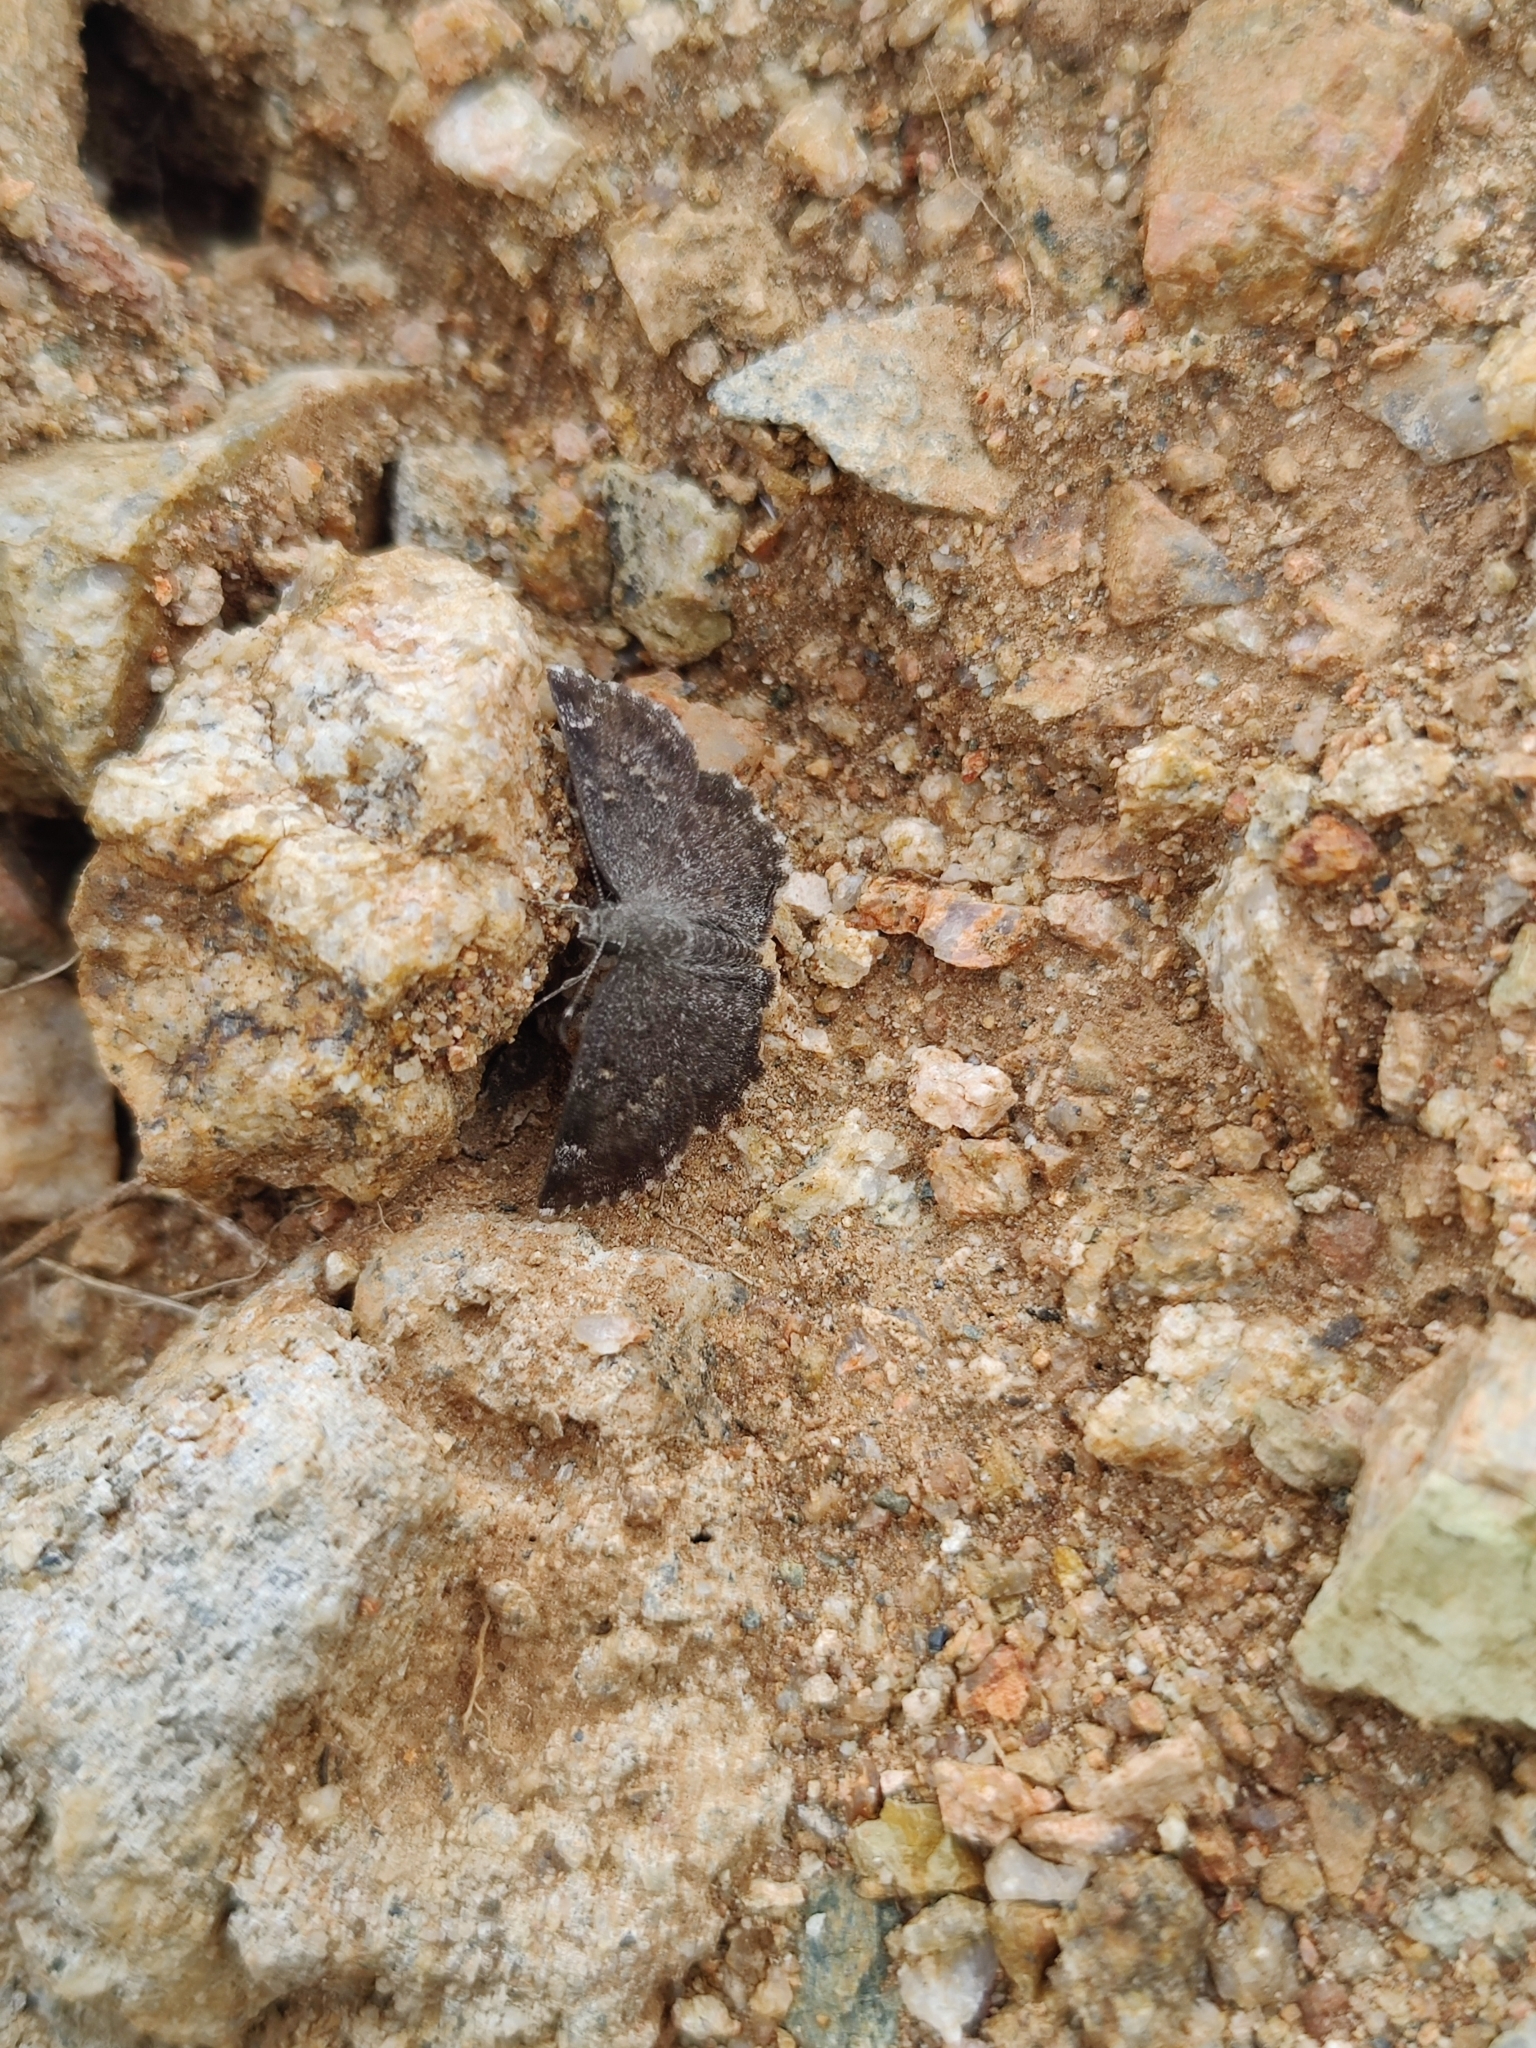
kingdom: Animalia
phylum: Arthropoda
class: Insecta
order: Lepidoptera
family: Hesperiidae
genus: Sarangesa
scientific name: Sarangesa purendra
